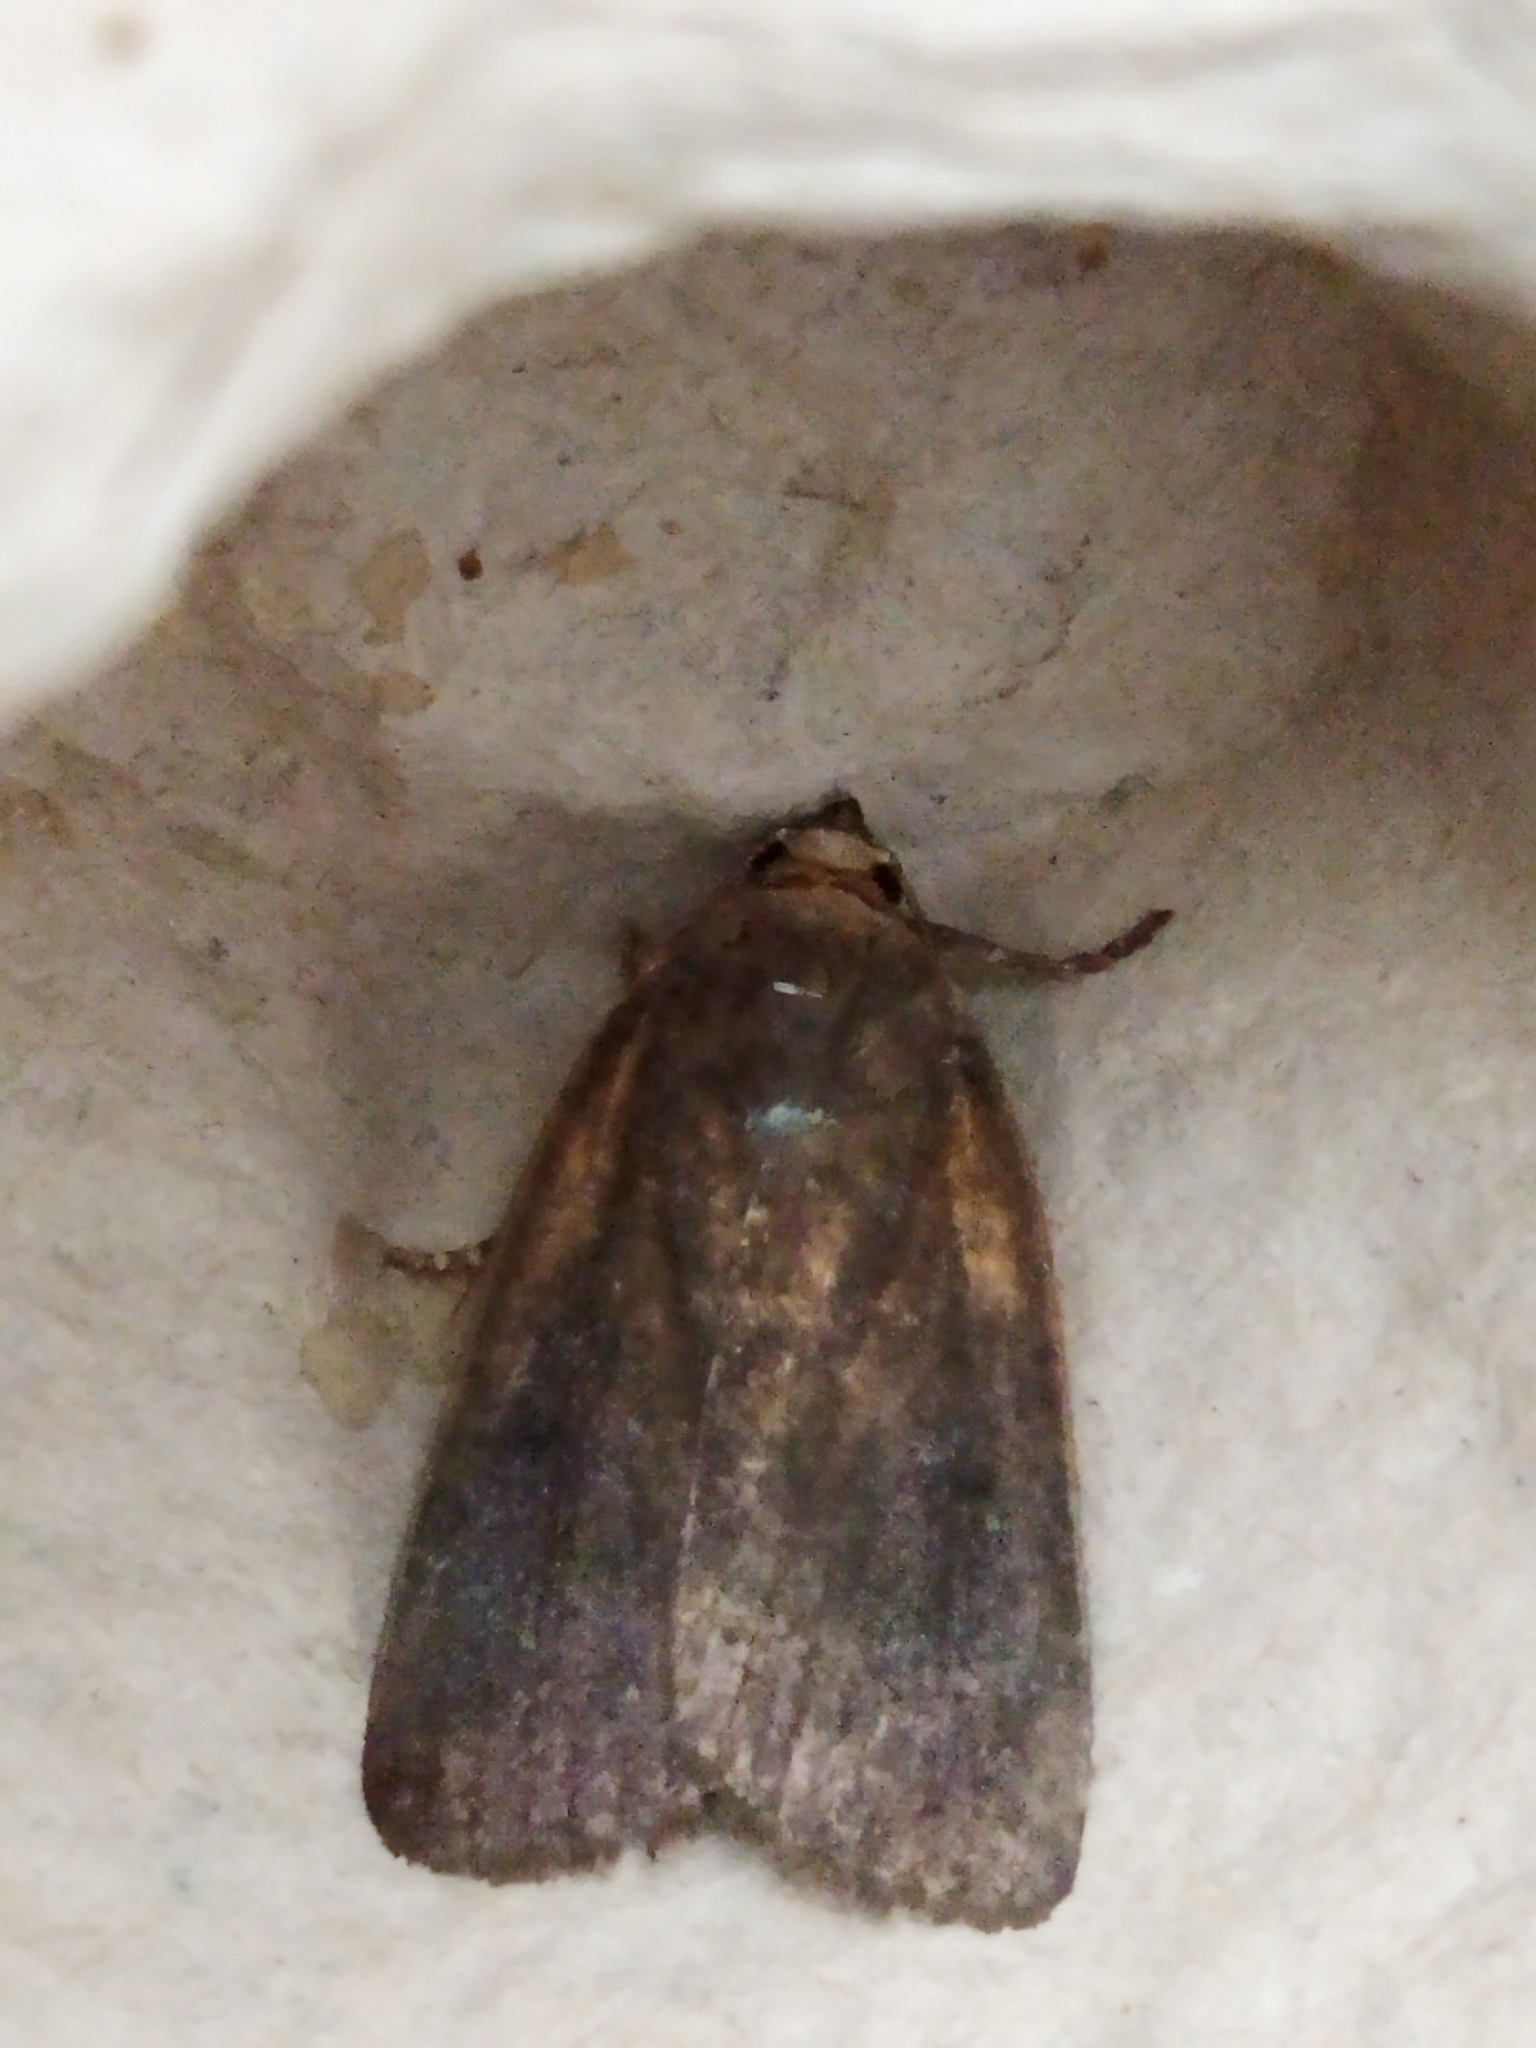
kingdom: Animalia
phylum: Arthropoda
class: Insecta
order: Lepidoptera
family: Noctuidae
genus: Amphipyra
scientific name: Amphipyra livida
